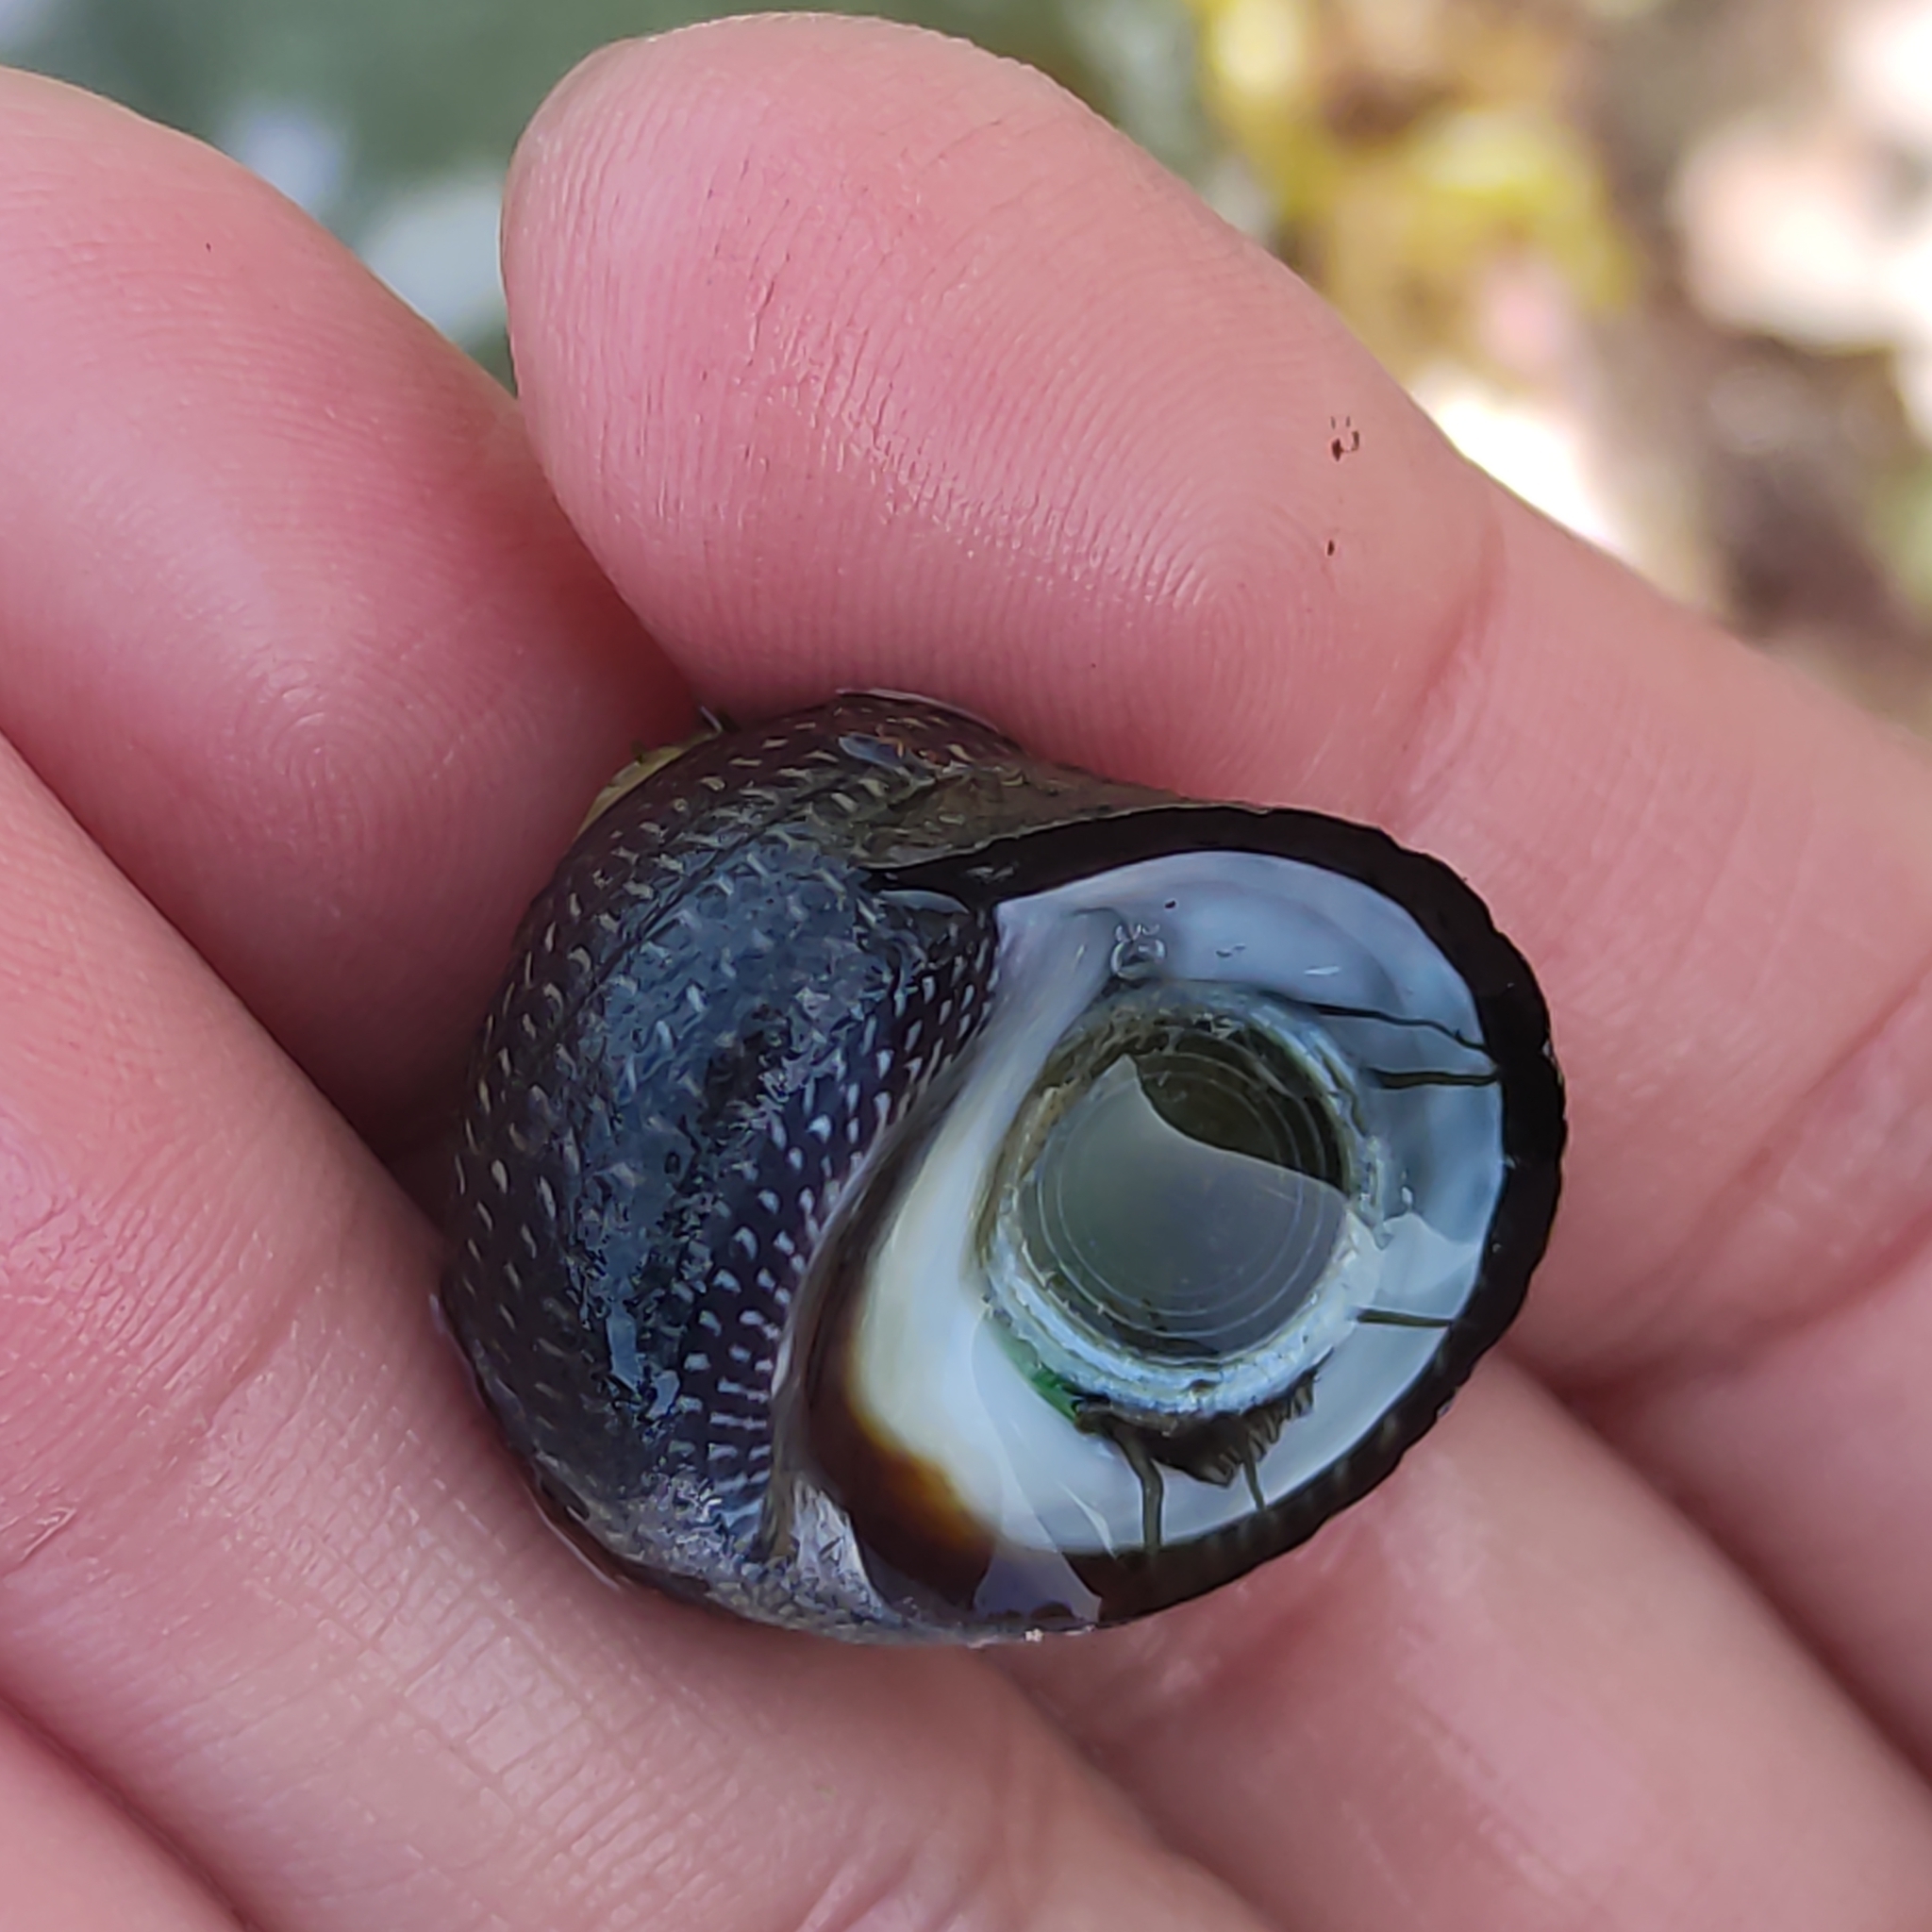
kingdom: Animalia
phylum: Mollusca
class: Gastropoda
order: Trochida
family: Trochidae
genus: Diloma
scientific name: Diloma aethiops
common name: Scorched monodont
